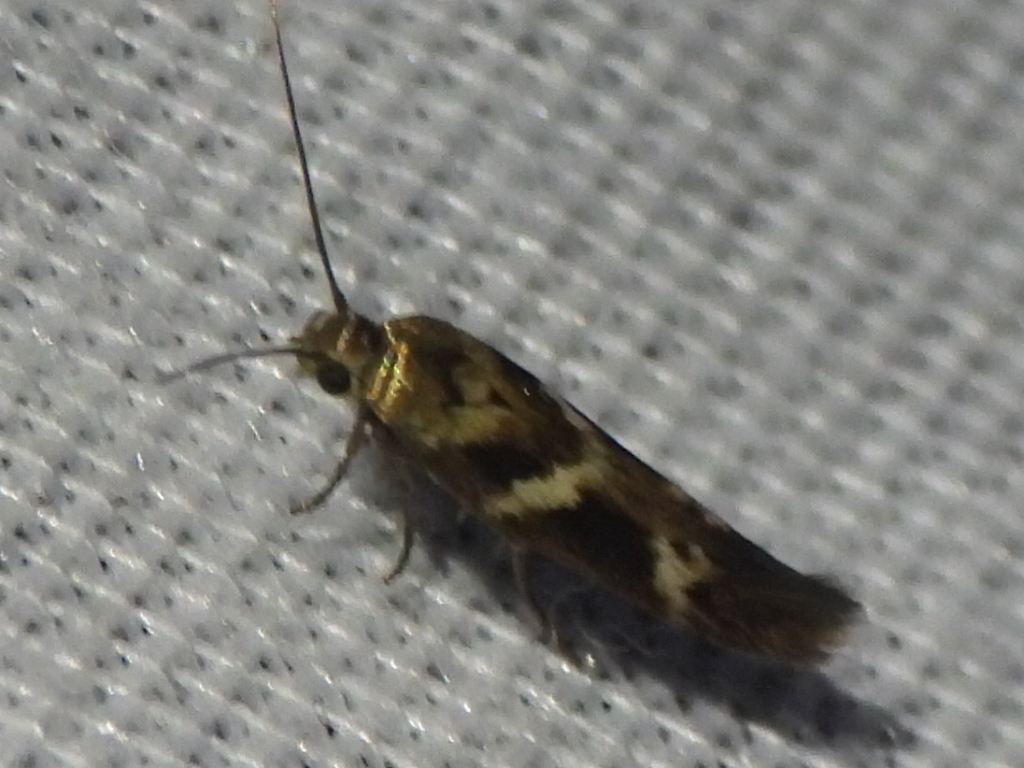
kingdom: Animalia
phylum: Arthropoda
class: Insecta
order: Lepidoptera
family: Scythrididae
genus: Scythris
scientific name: Scythris trivinctella
